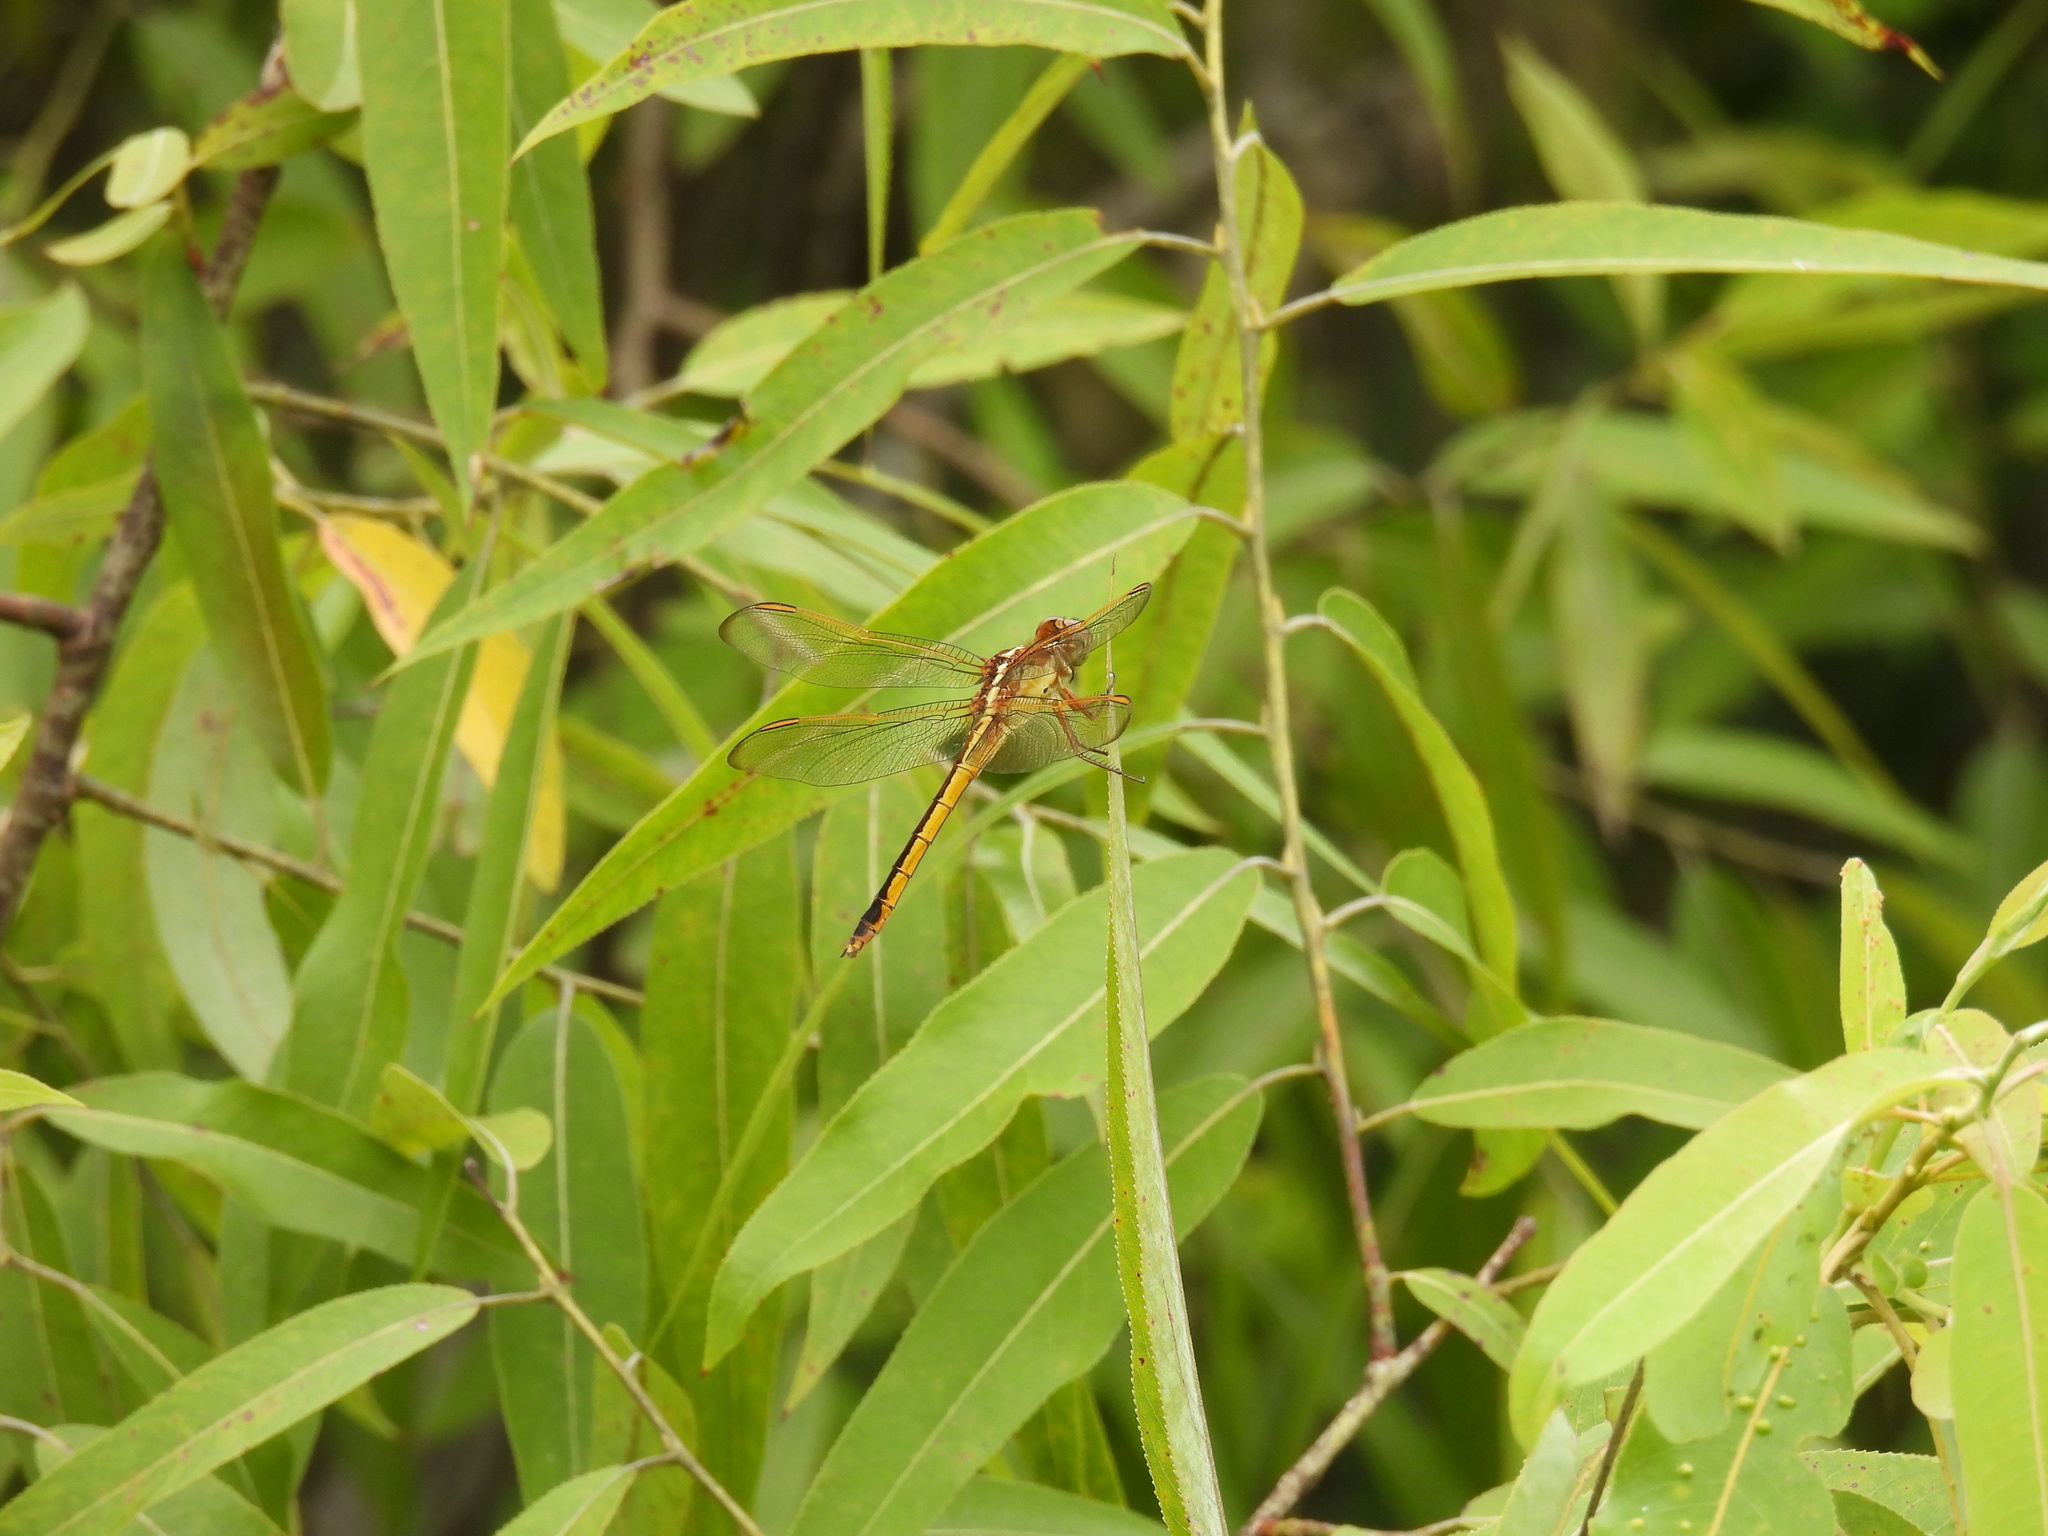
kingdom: Animalia
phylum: Arthropoda
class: Insecta
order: Odonata
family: Libellulidae
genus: Libellula
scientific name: Libellula needhami
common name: Needham's skimmer
